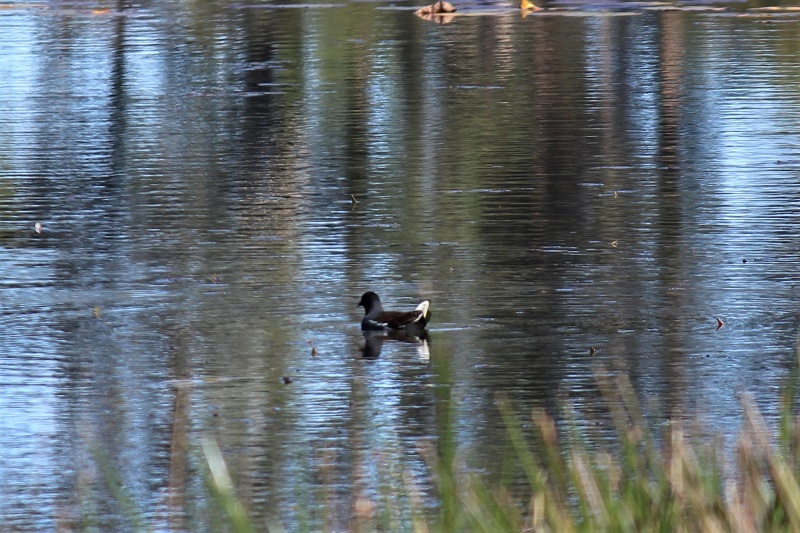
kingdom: Animalia
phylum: Chordata
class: Aves
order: Gruiformes
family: Rallidae
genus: Gallinula
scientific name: Gallinula chloropus
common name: Common moorhen
